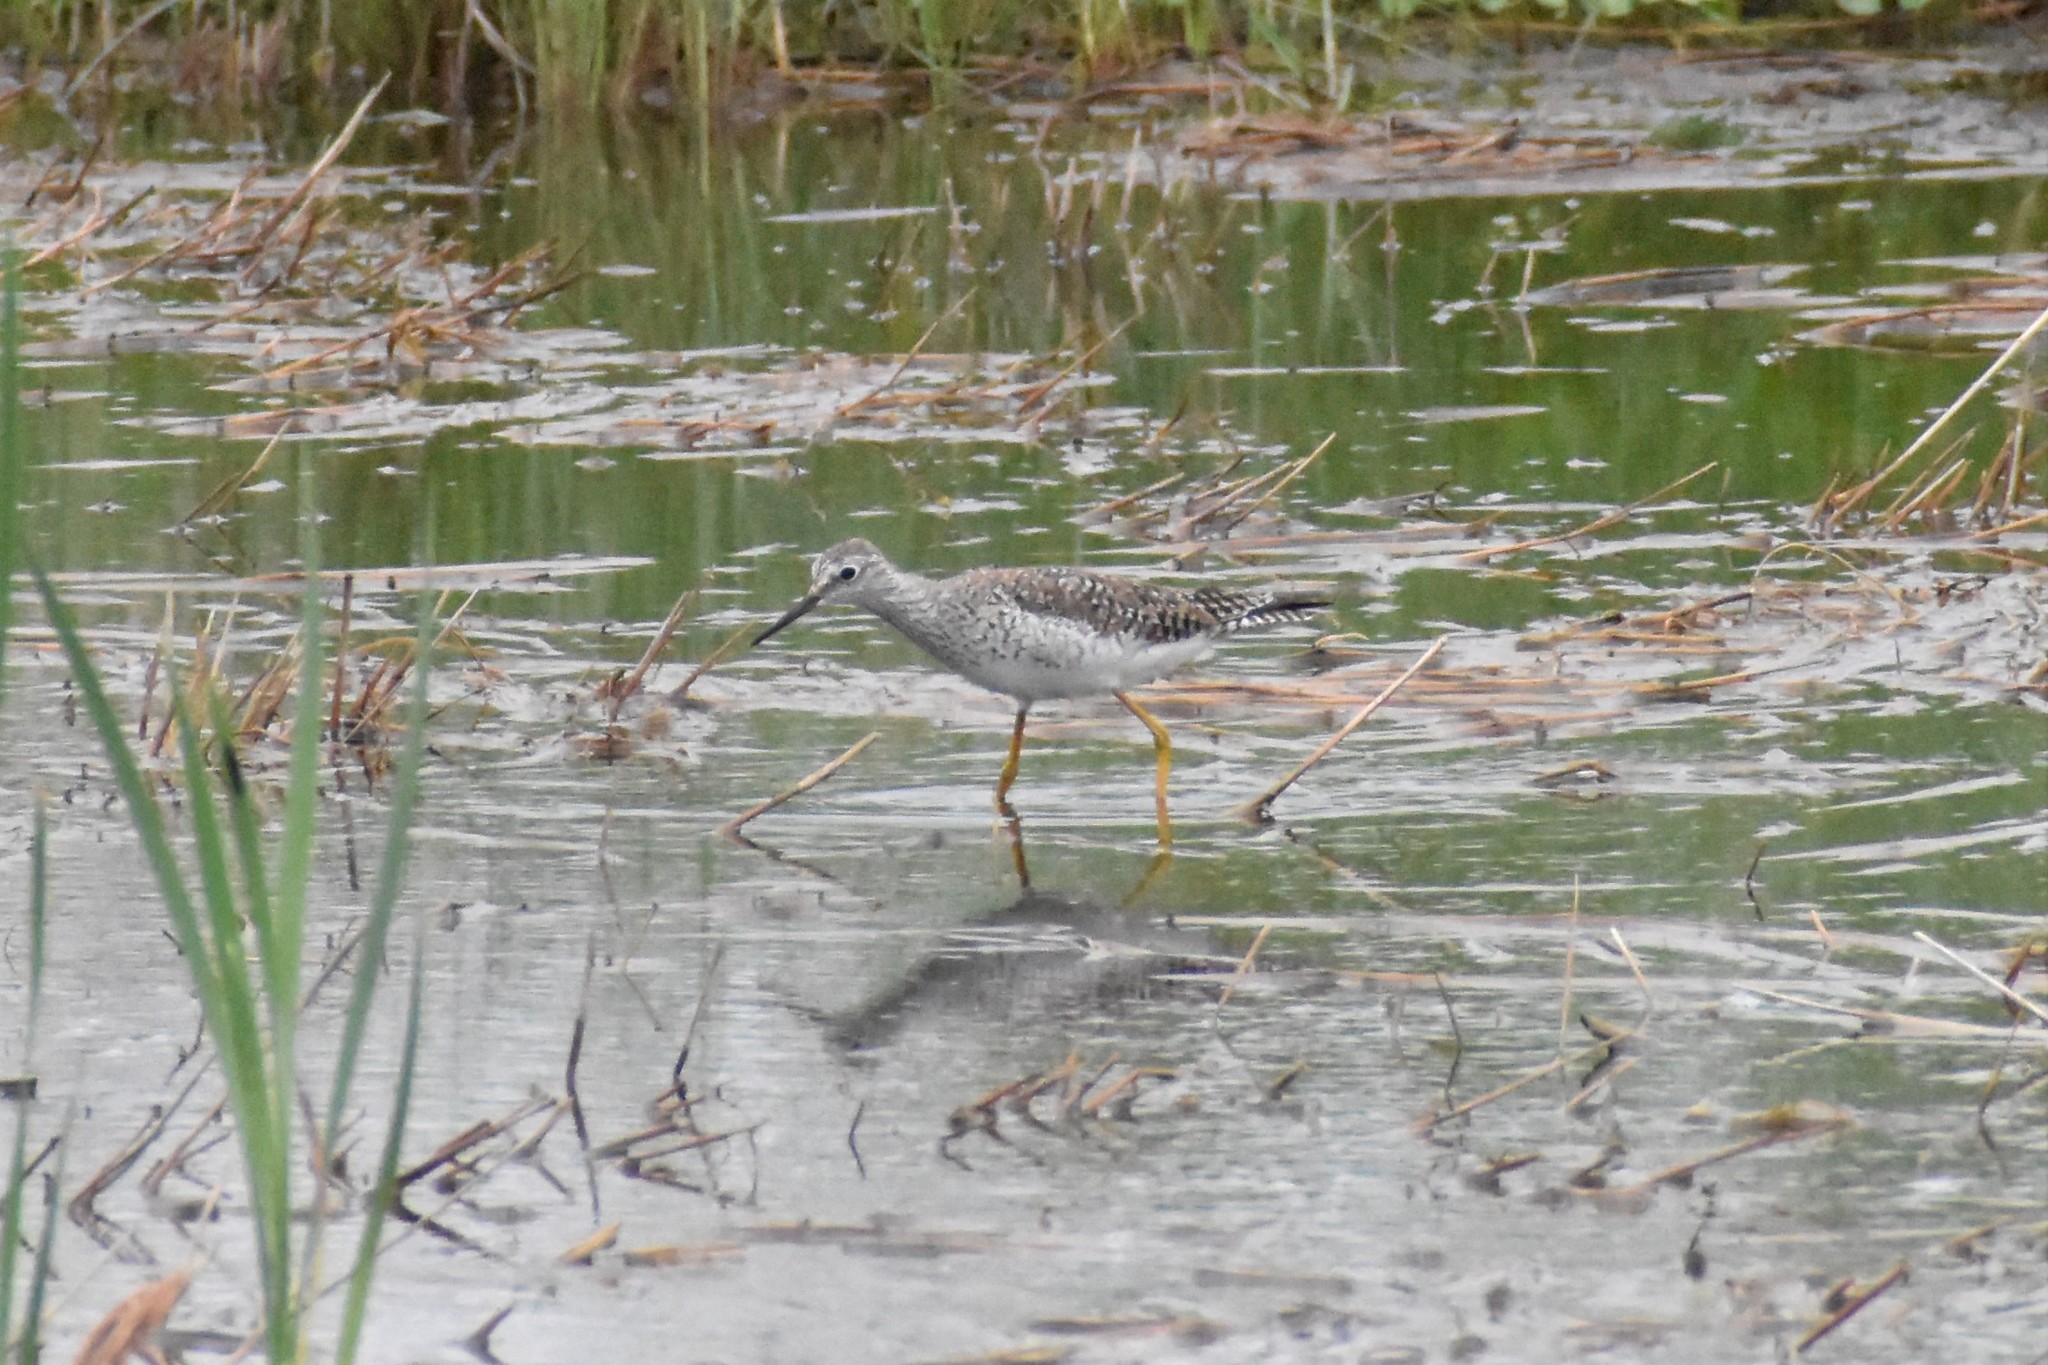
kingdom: Animalia
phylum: Chordata
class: Aves
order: Charadriiformes
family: Scolopacidae
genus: Tringa
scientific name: Tringa flavipes
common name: Lesser yellowlegs
